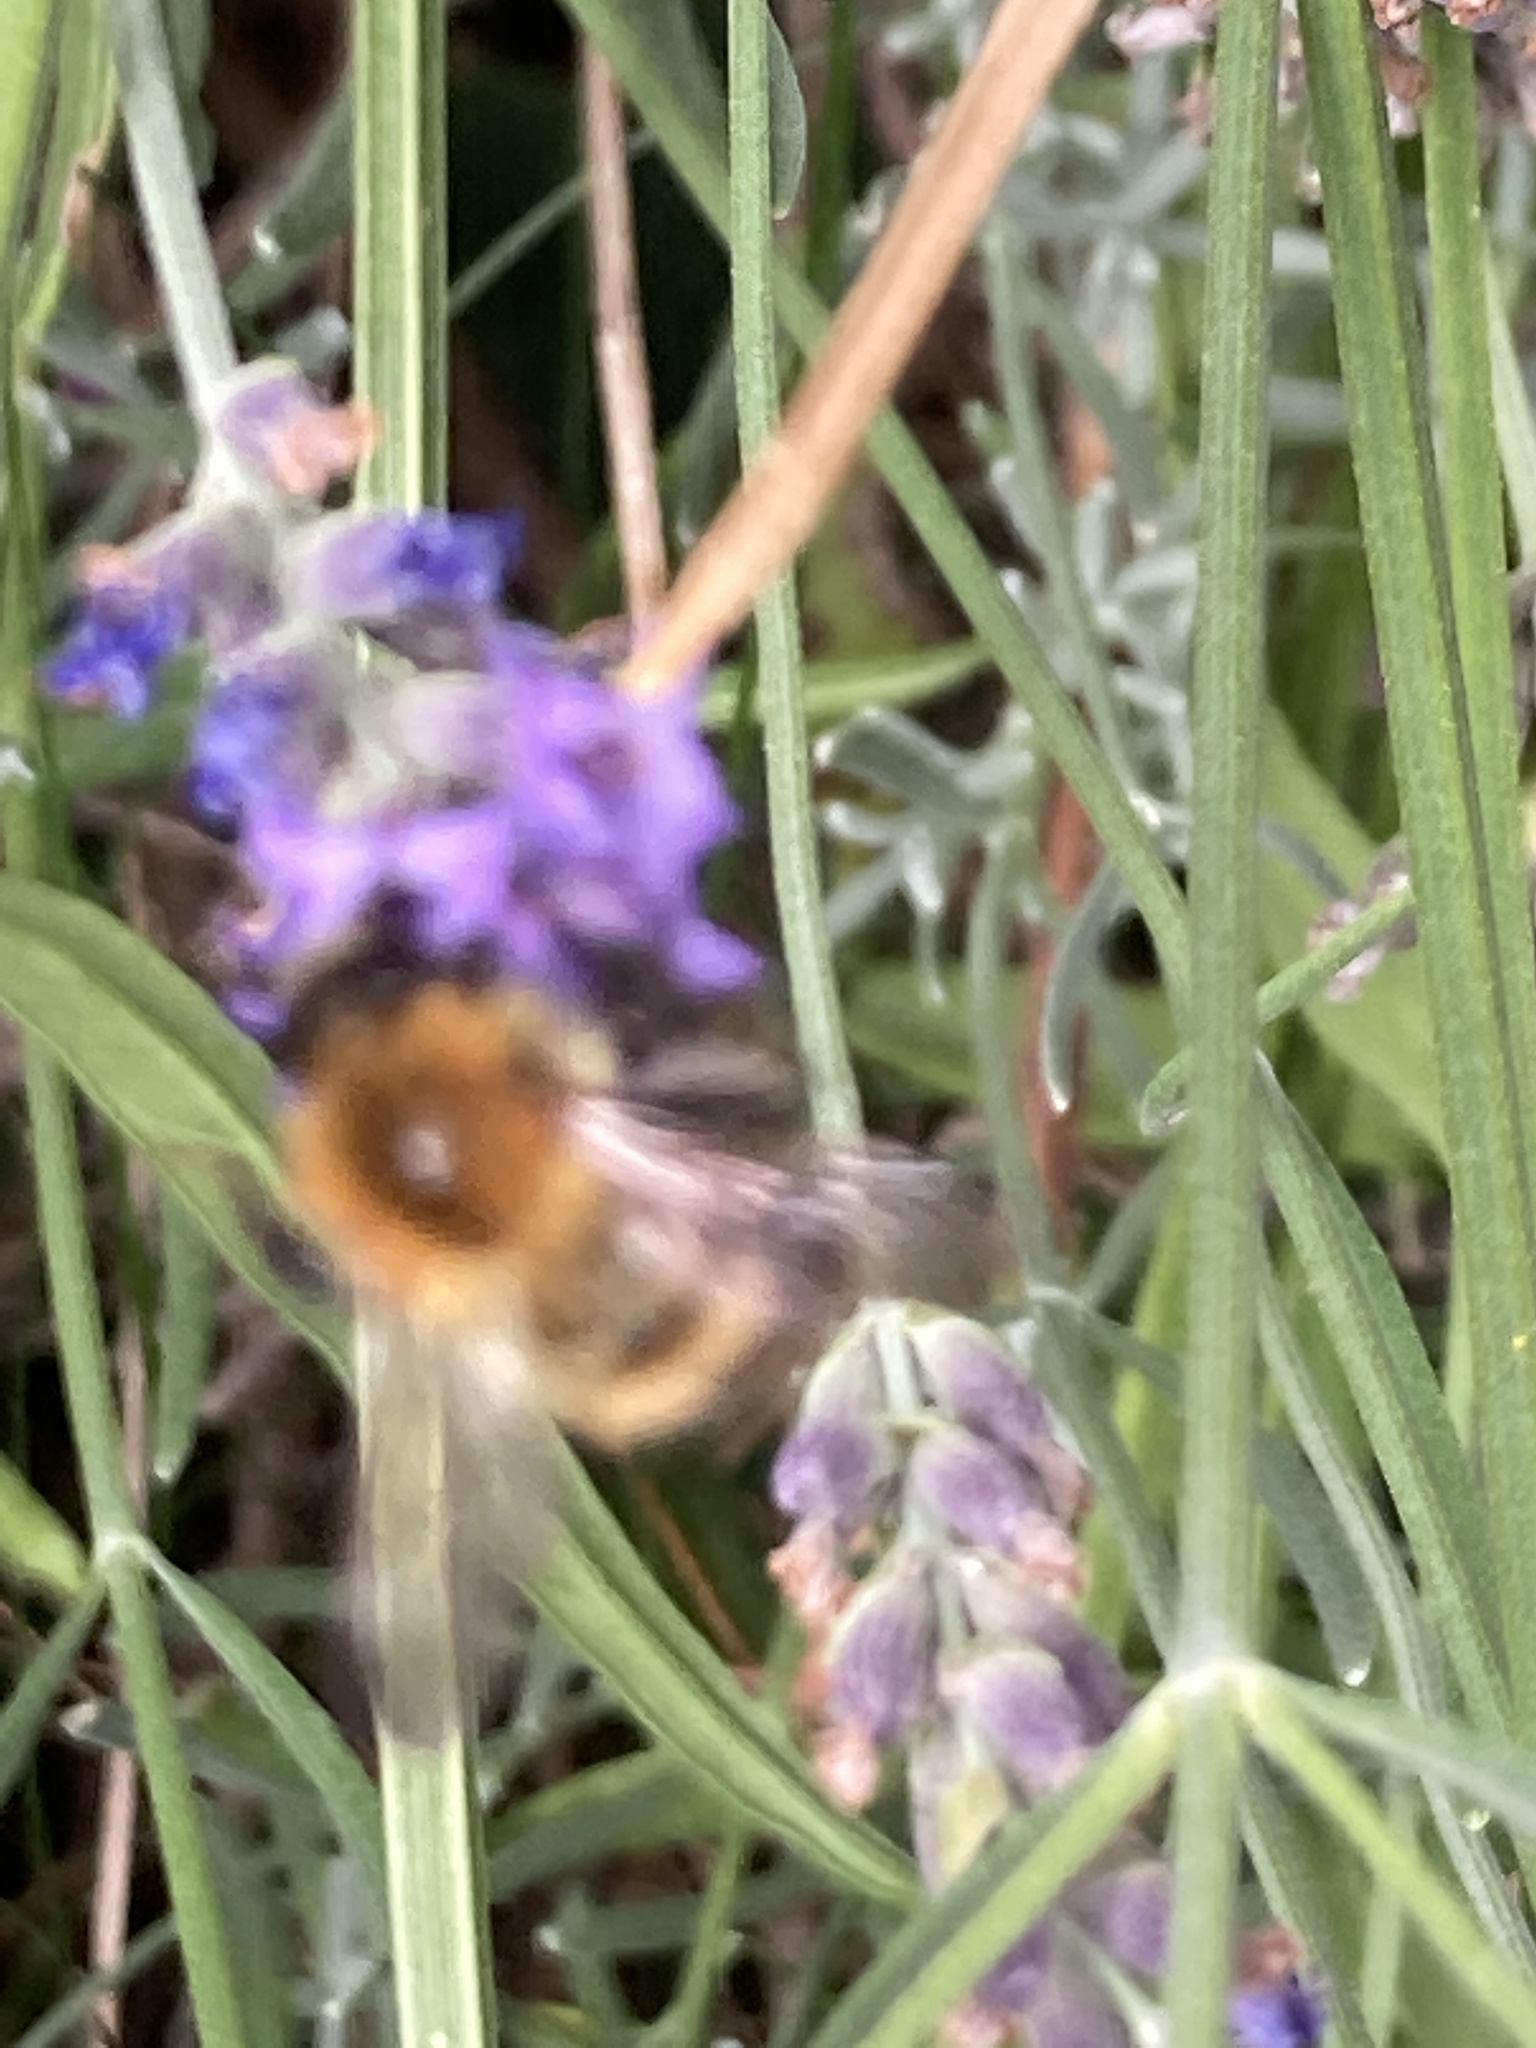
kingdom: Animalia
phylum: Arthropoda
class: Insecta
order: Hymenoptera
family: Apidae
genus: Bombus
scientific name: Bombus pascuorum
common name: Common carder bee
